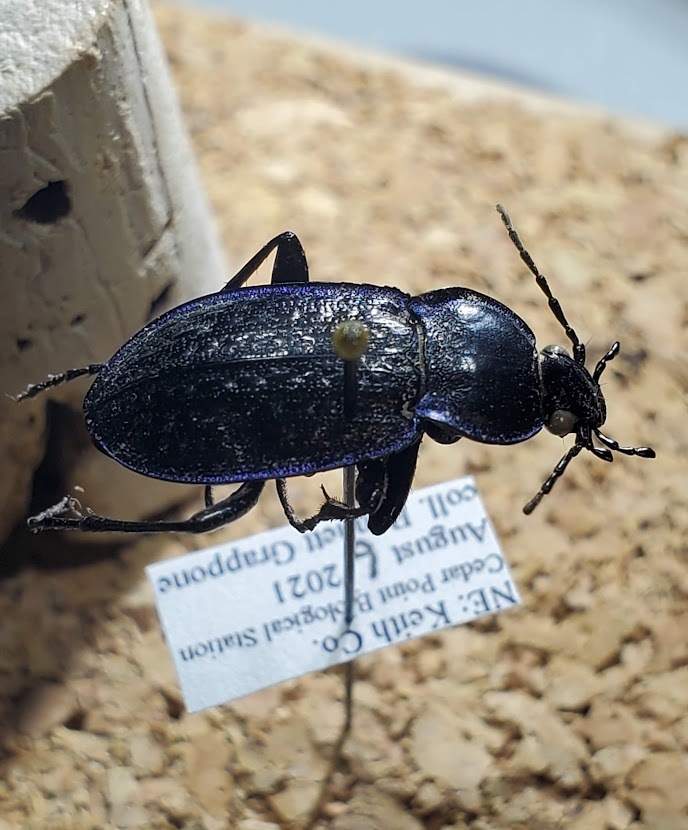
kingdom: Animalia
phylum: Arthropoda
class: Insecta
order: Coleoptera
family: Carabidae
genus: Carabus
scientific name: Carabus serratus
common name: Serrate-shoulder worm and slug hunter
